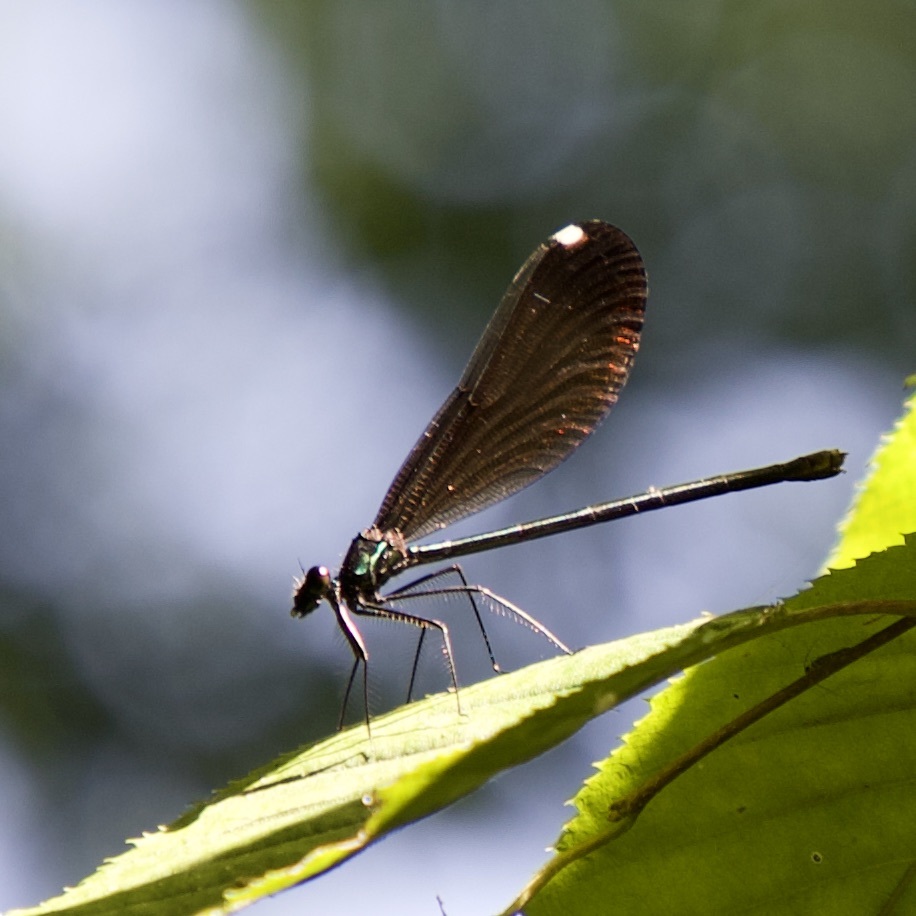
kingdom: Animalia
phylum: Arthropoda
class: Insecta
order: Odonata
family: Calopterygidae
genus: Calopteryx
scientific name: Calopteryx maculata
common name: Ebony jewelwing
